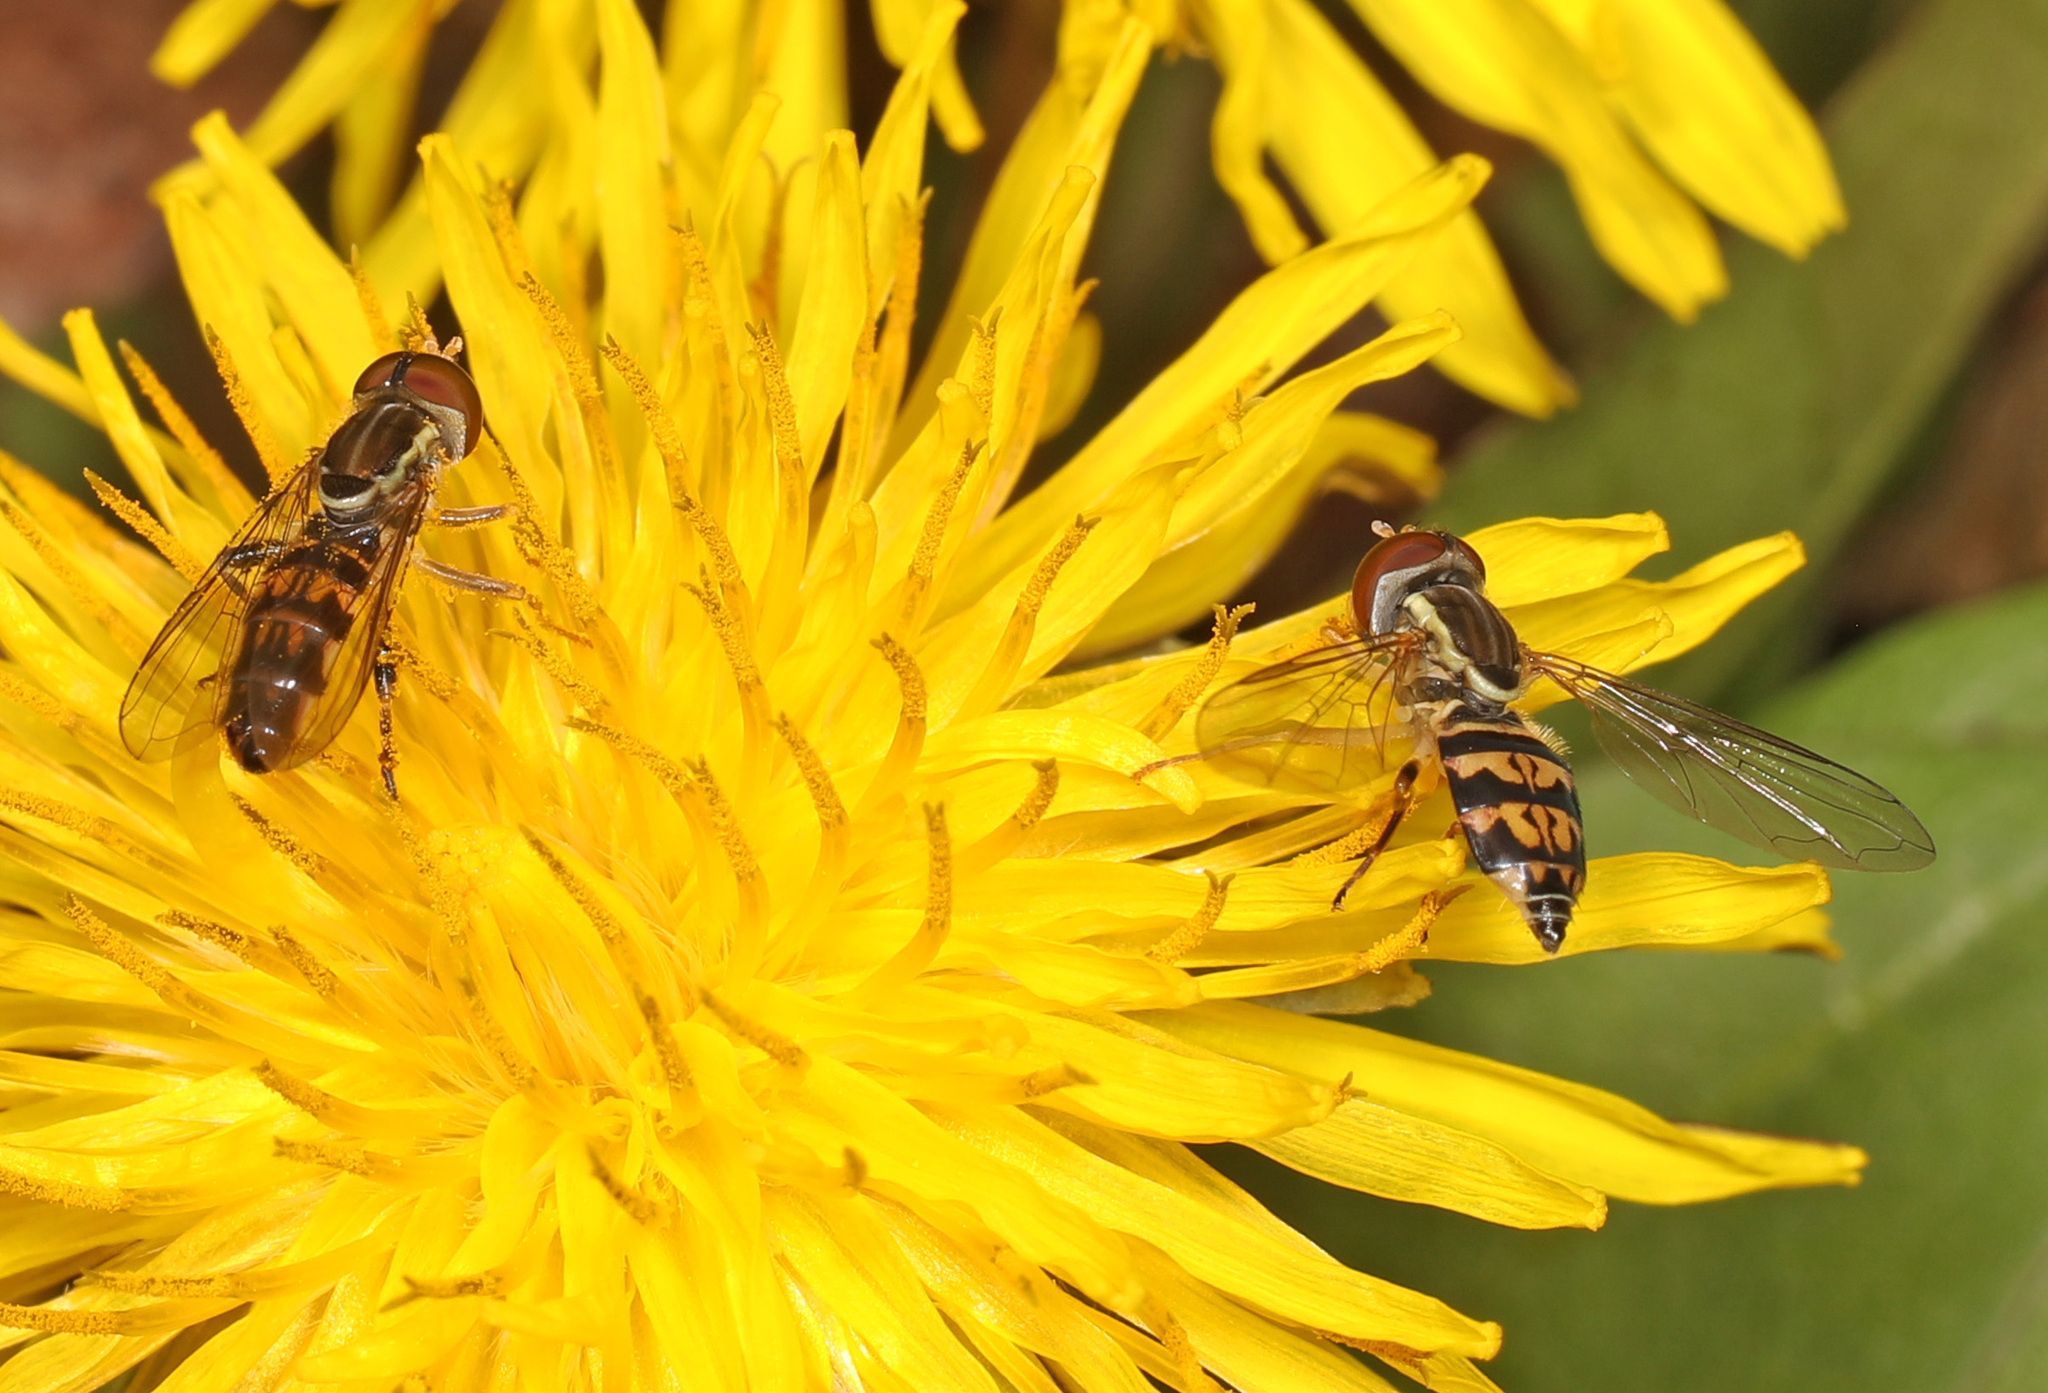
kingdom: Animalia
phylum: Arthropoda
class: Insecta
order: Diptera
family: Syrphidae
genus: Toxomerus
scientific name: Toxomerus geminatus
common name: Eastern calligrapher
